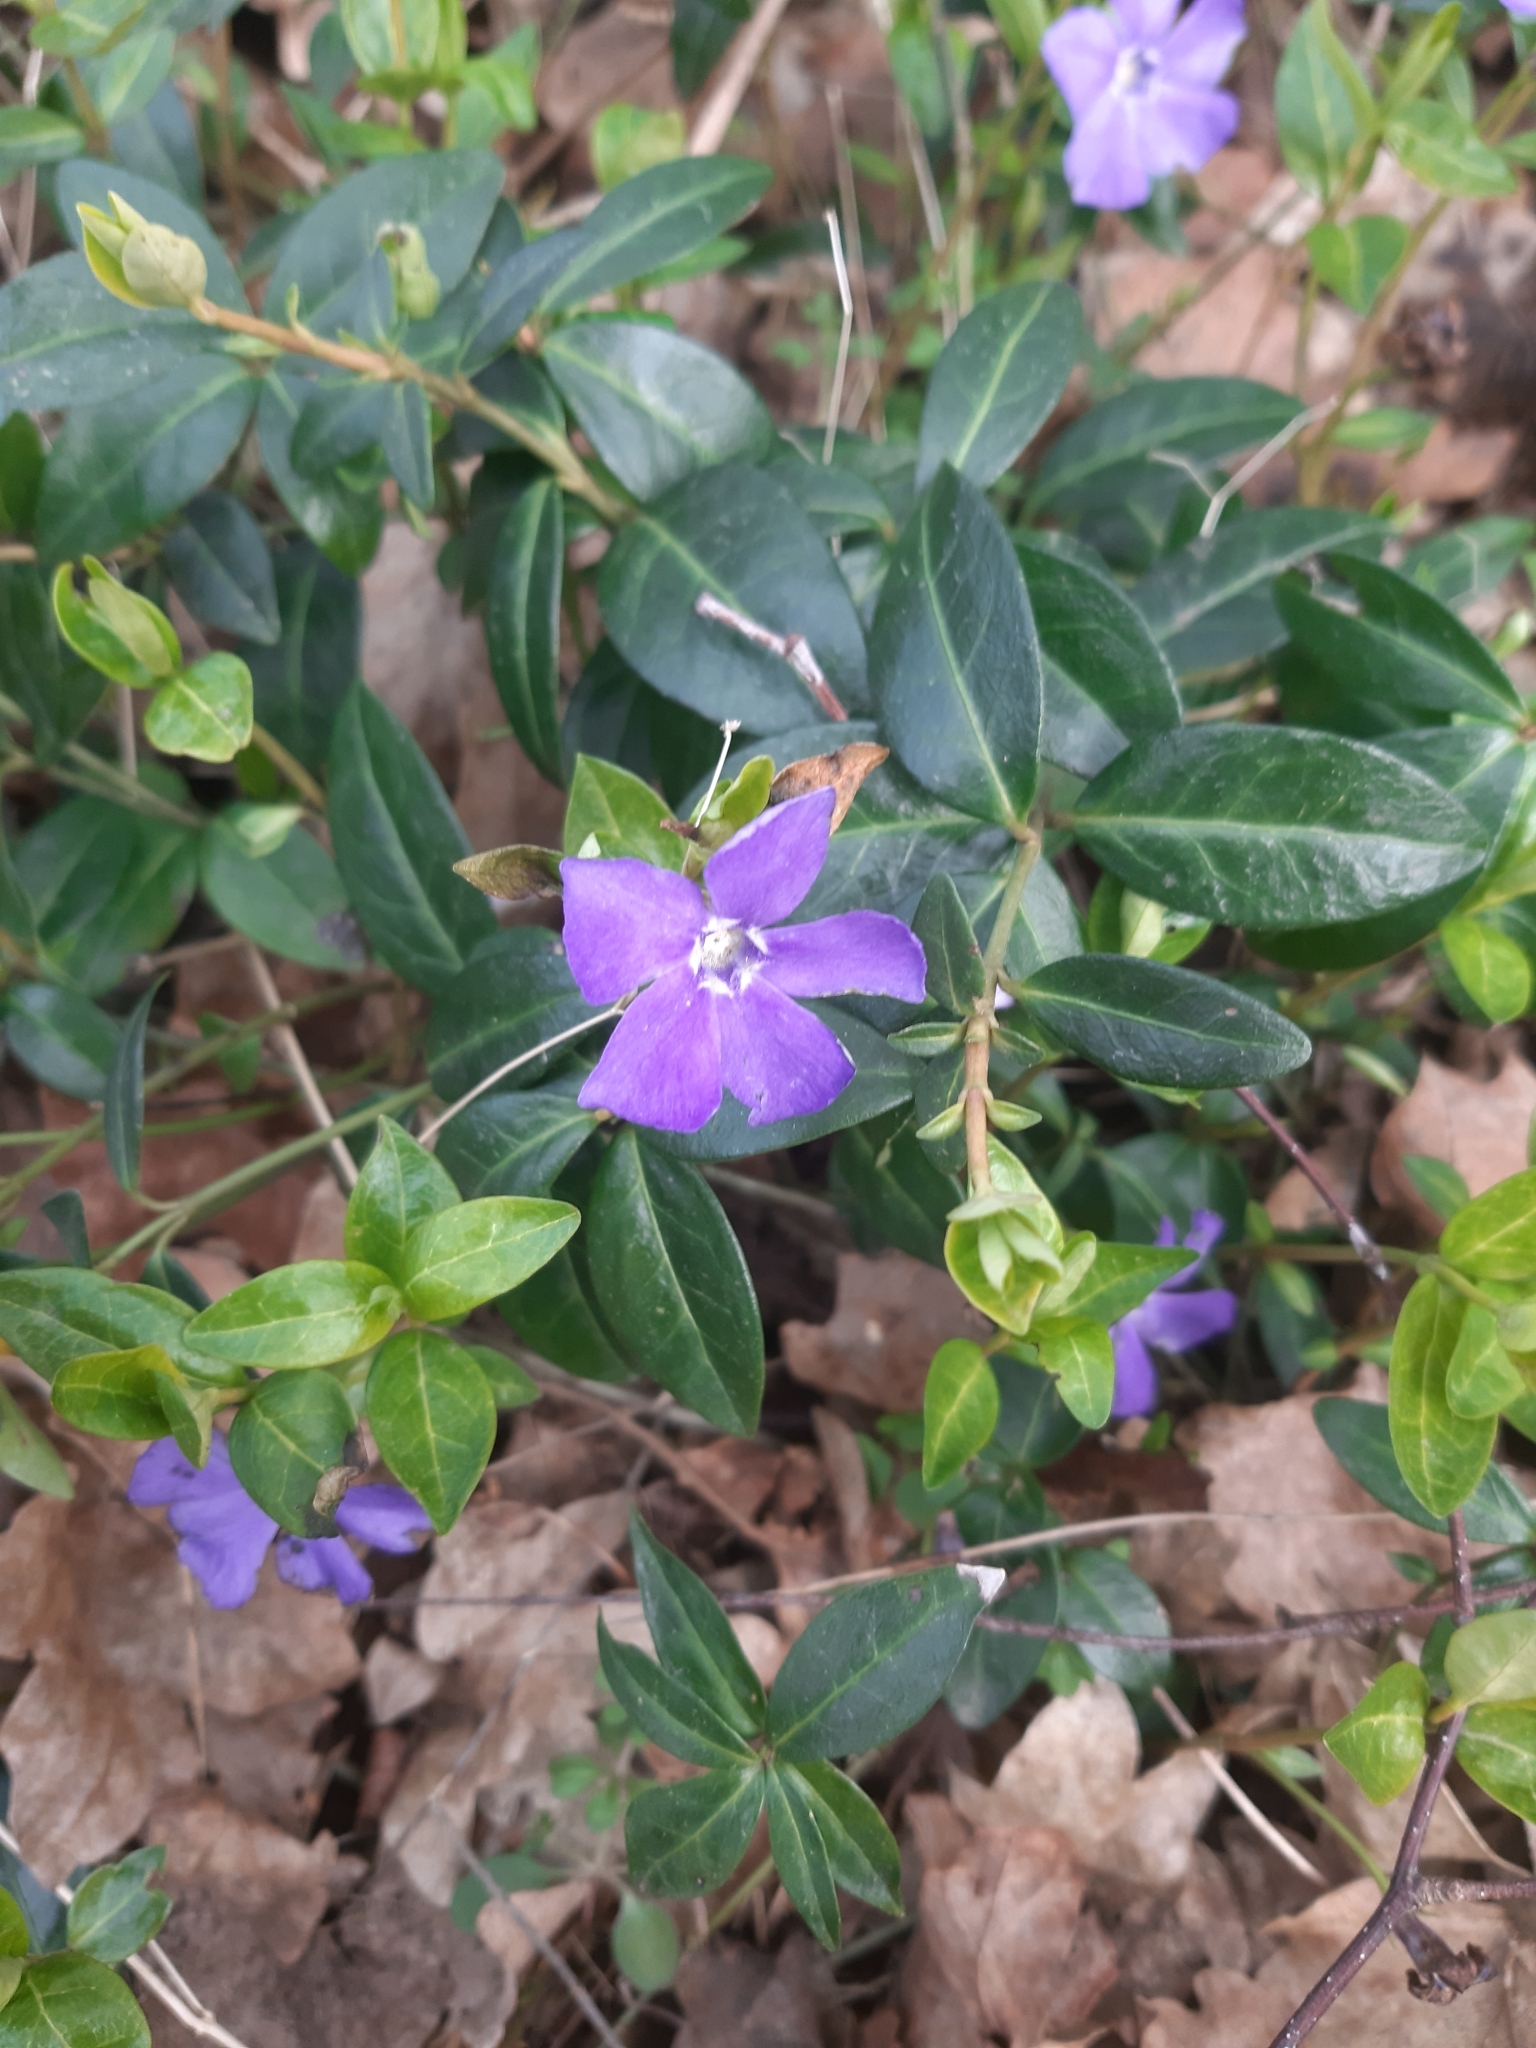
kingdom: Plantae
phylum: Tracheophyta
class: Magnoliopsida
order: Gentianales
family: Apocynaceae
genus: Vinca
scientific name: Vinca minor
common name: Lesser periwinkle
